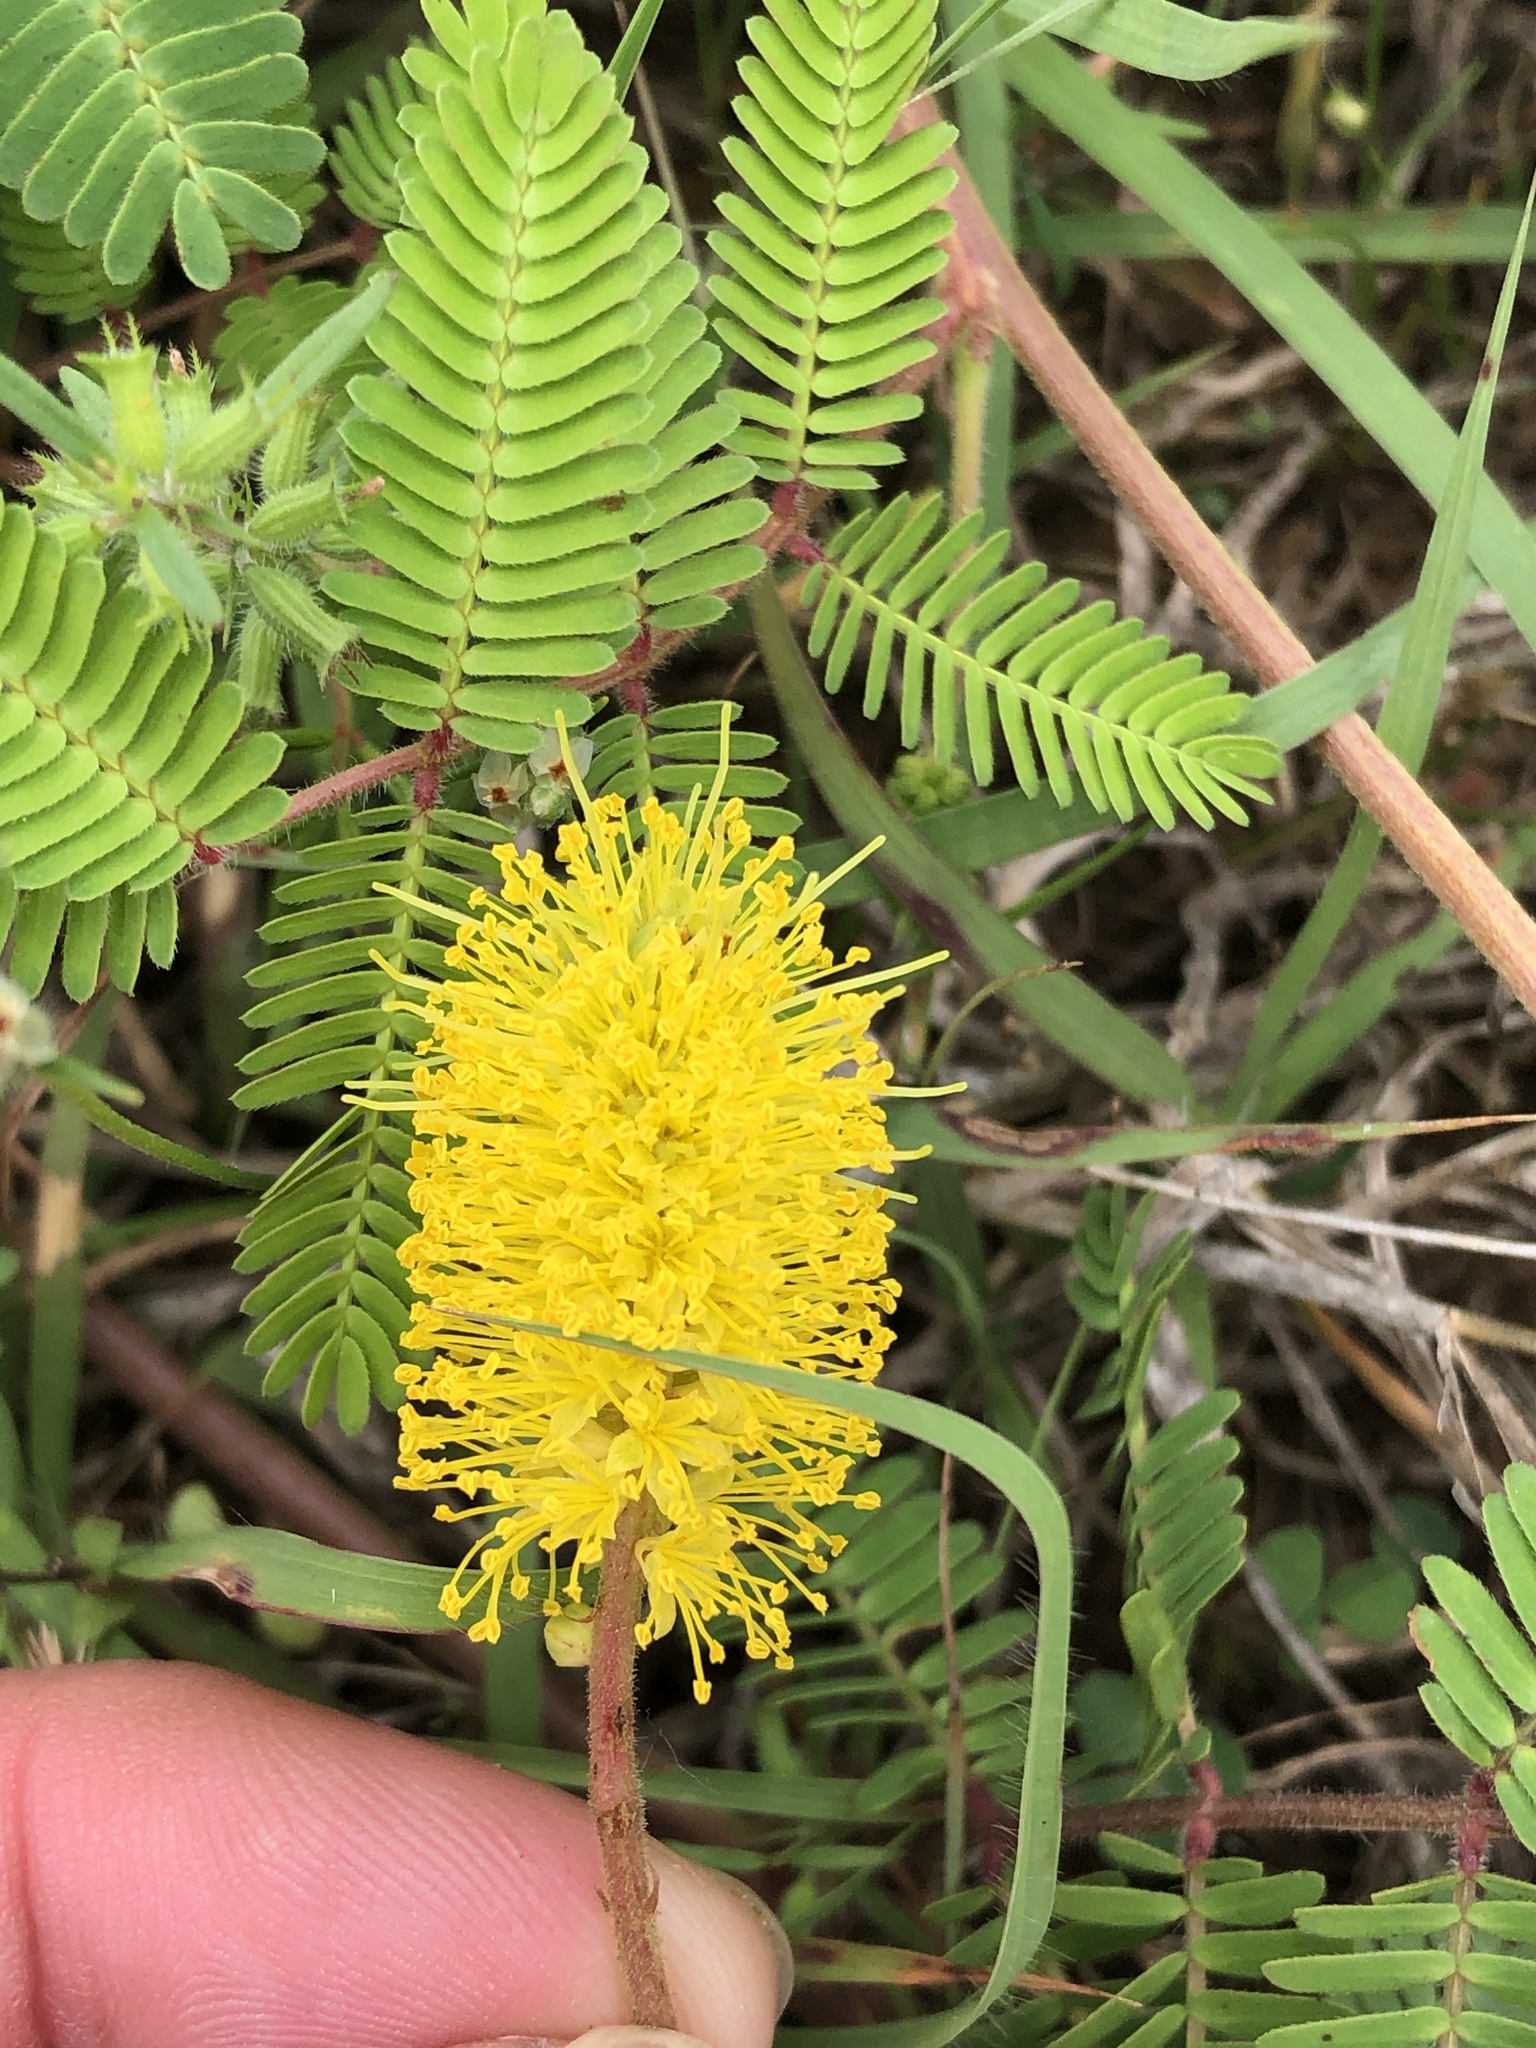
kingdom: Plantae
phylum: Tracheophyta
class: Magnoliopsida
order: Fabales
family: Fabaceae
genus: Neptunia
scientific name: Neptunia lutea
